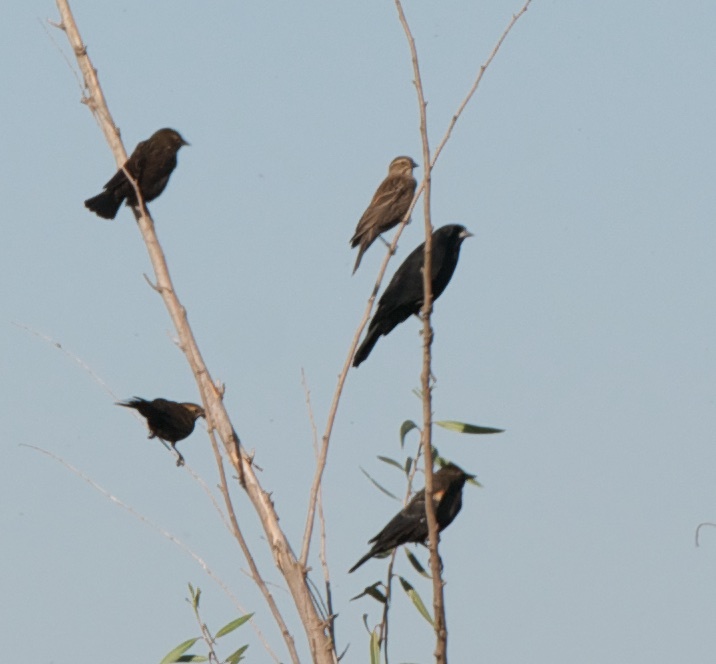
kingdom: Animalia
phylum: Chordata
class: Aves
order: Passeriformes
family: Icteridae
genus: Agelaius
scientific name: Agelaius phoeniceus
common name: Red-winged blackbird
